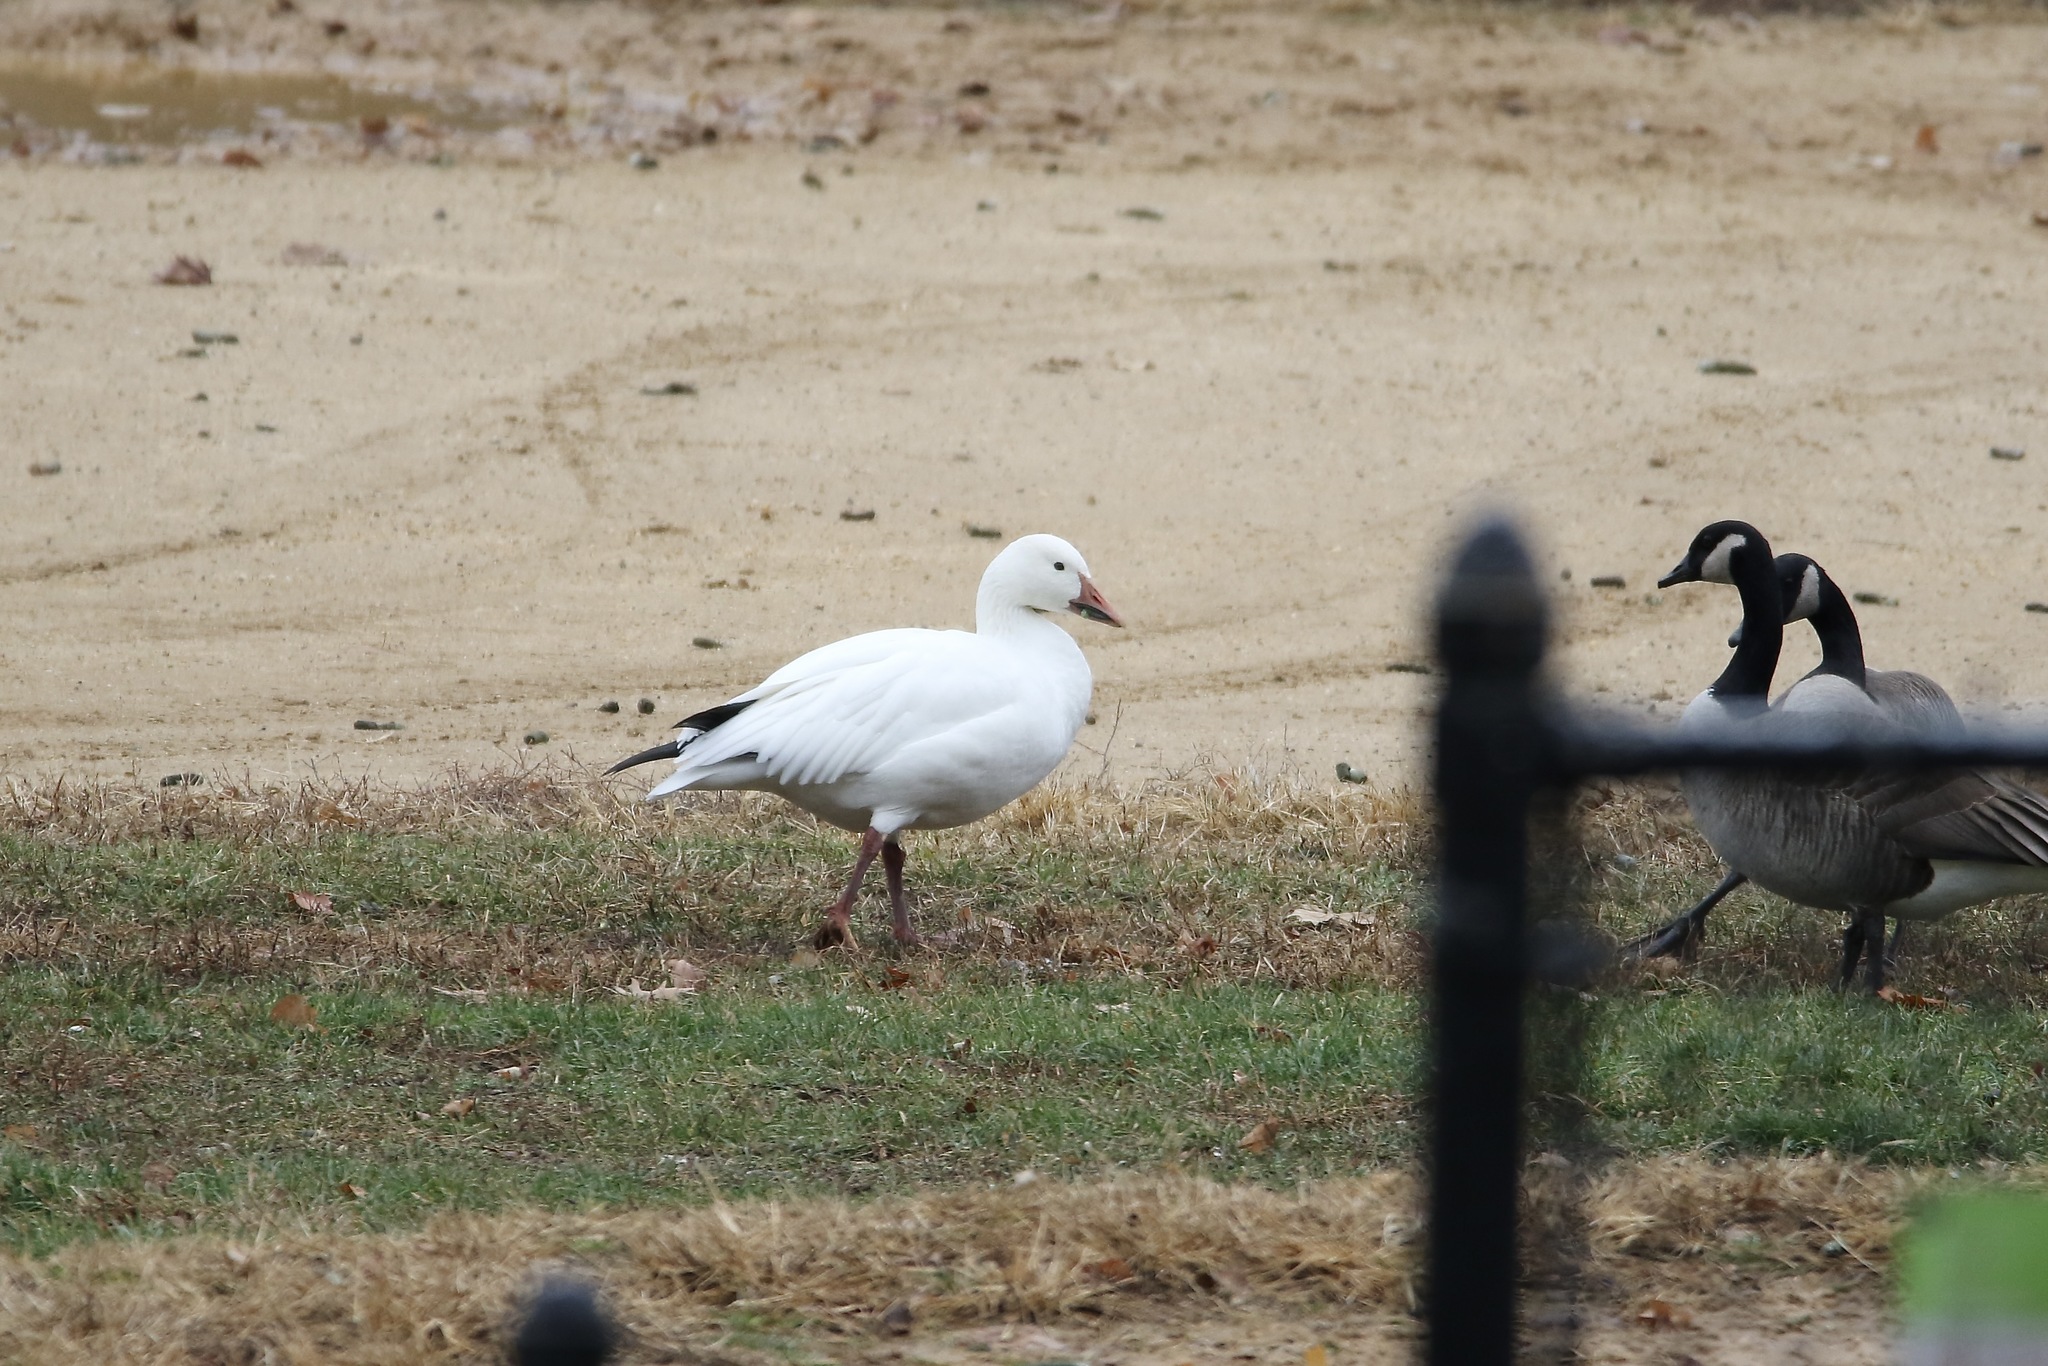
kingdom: Animalia
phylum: Chordata
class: Aves
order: Anseriformes
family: Anatidae
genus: Anser
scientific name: Anser caerulescens
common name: Snow goose
